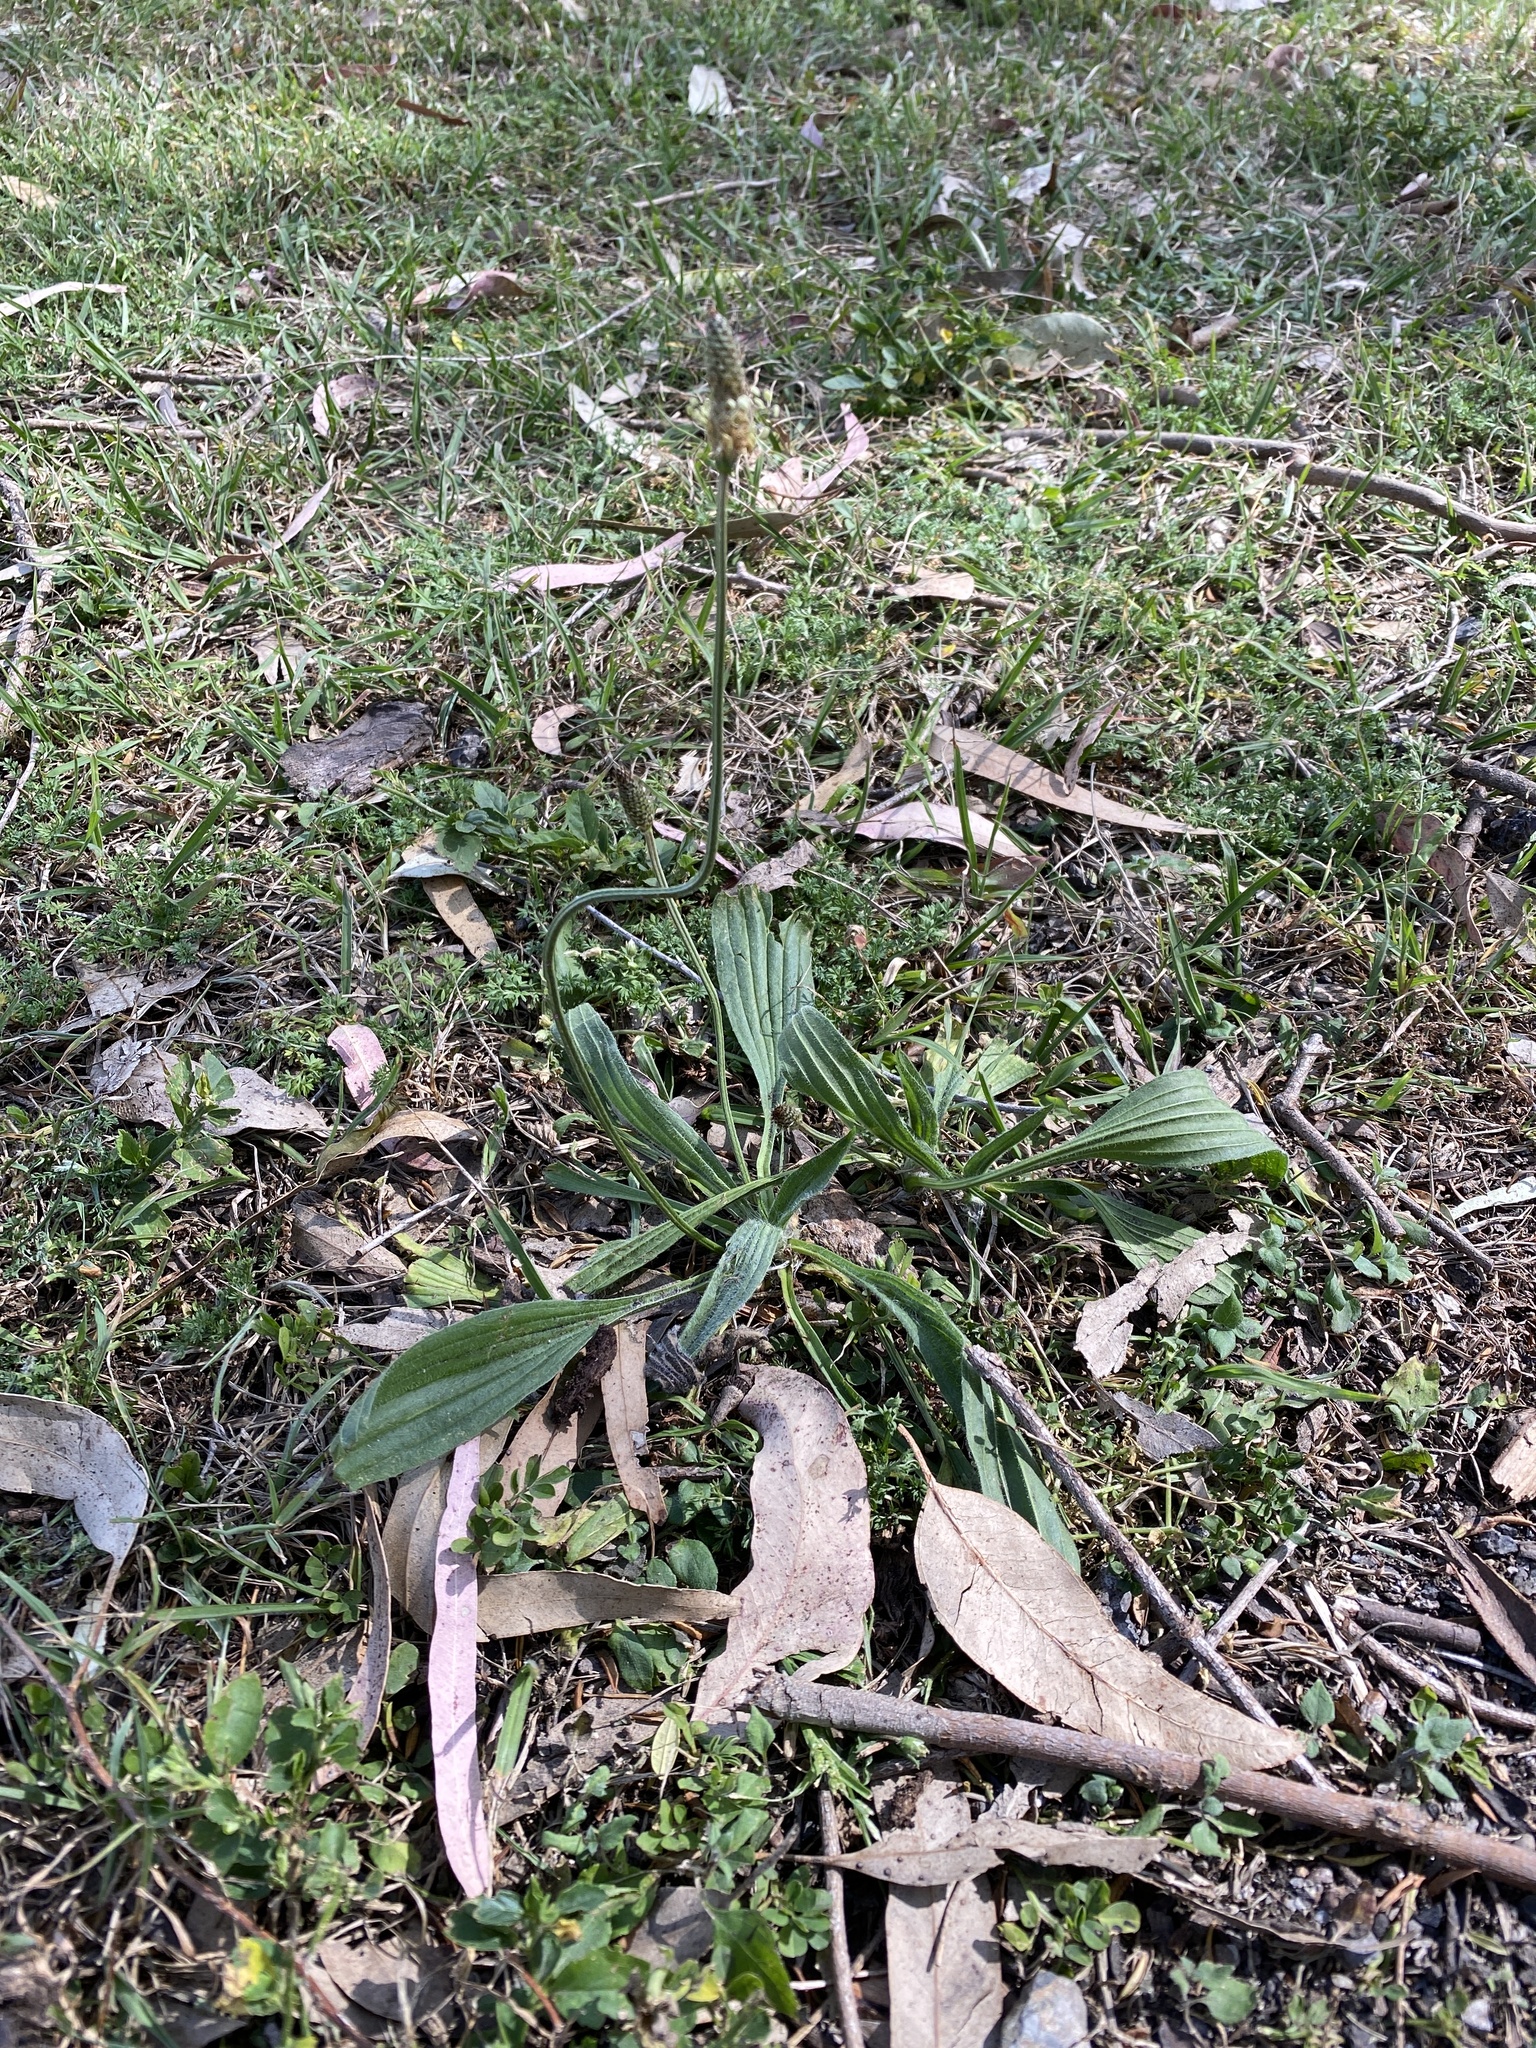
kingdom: Plantae
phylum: Tracheophyta
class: Magnoliopsida
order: Lamiales
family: Plantaginaceae
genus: Plantago
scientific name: Plantago lanceolata
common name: Ribwort plantain
